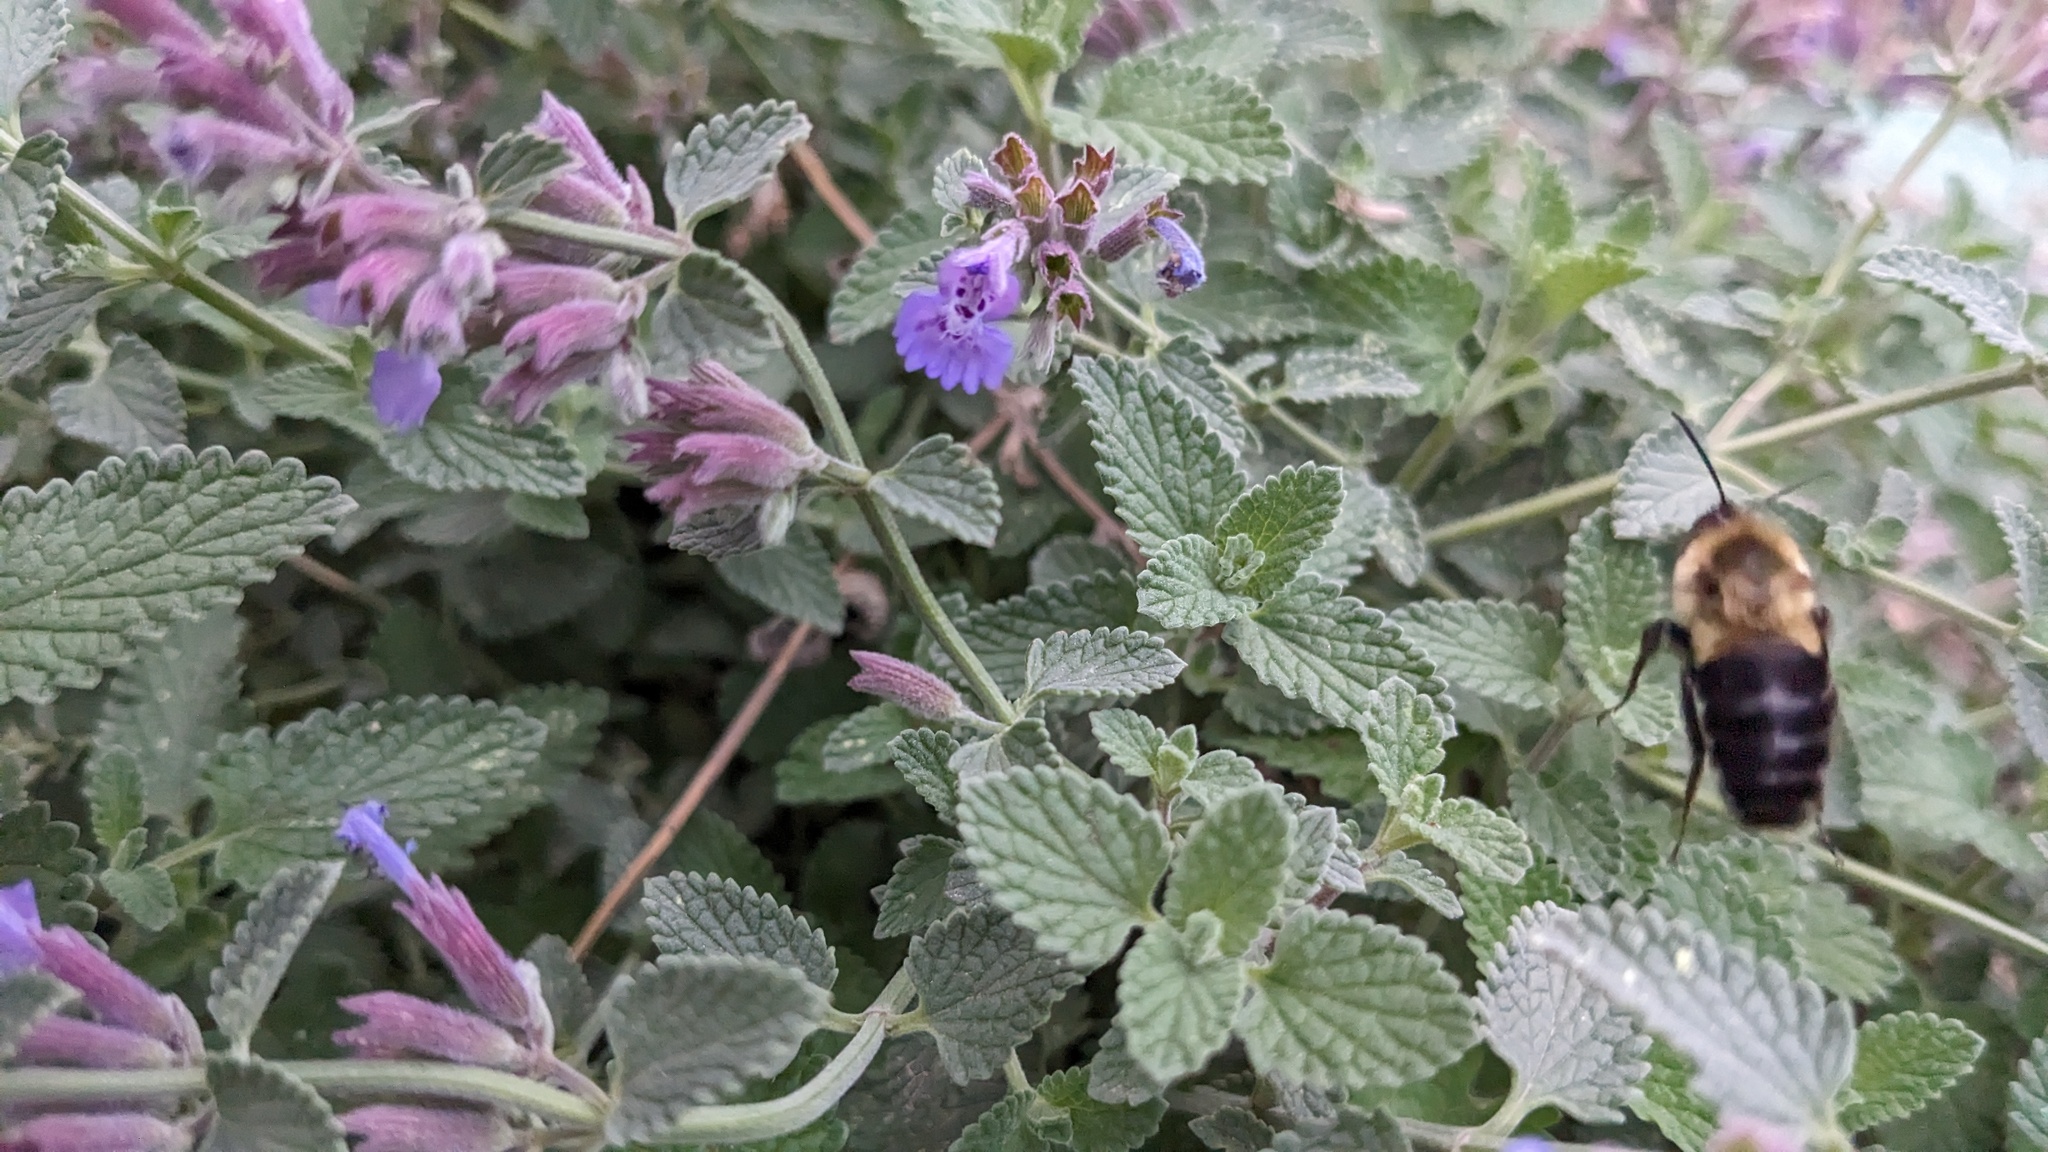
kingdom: Animalia
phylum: Arthropoda
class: Insecta
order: Hymenoptera
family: Apidae
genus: Bombus
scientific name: Bombus impatiens
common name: Common eastern bumble bee
